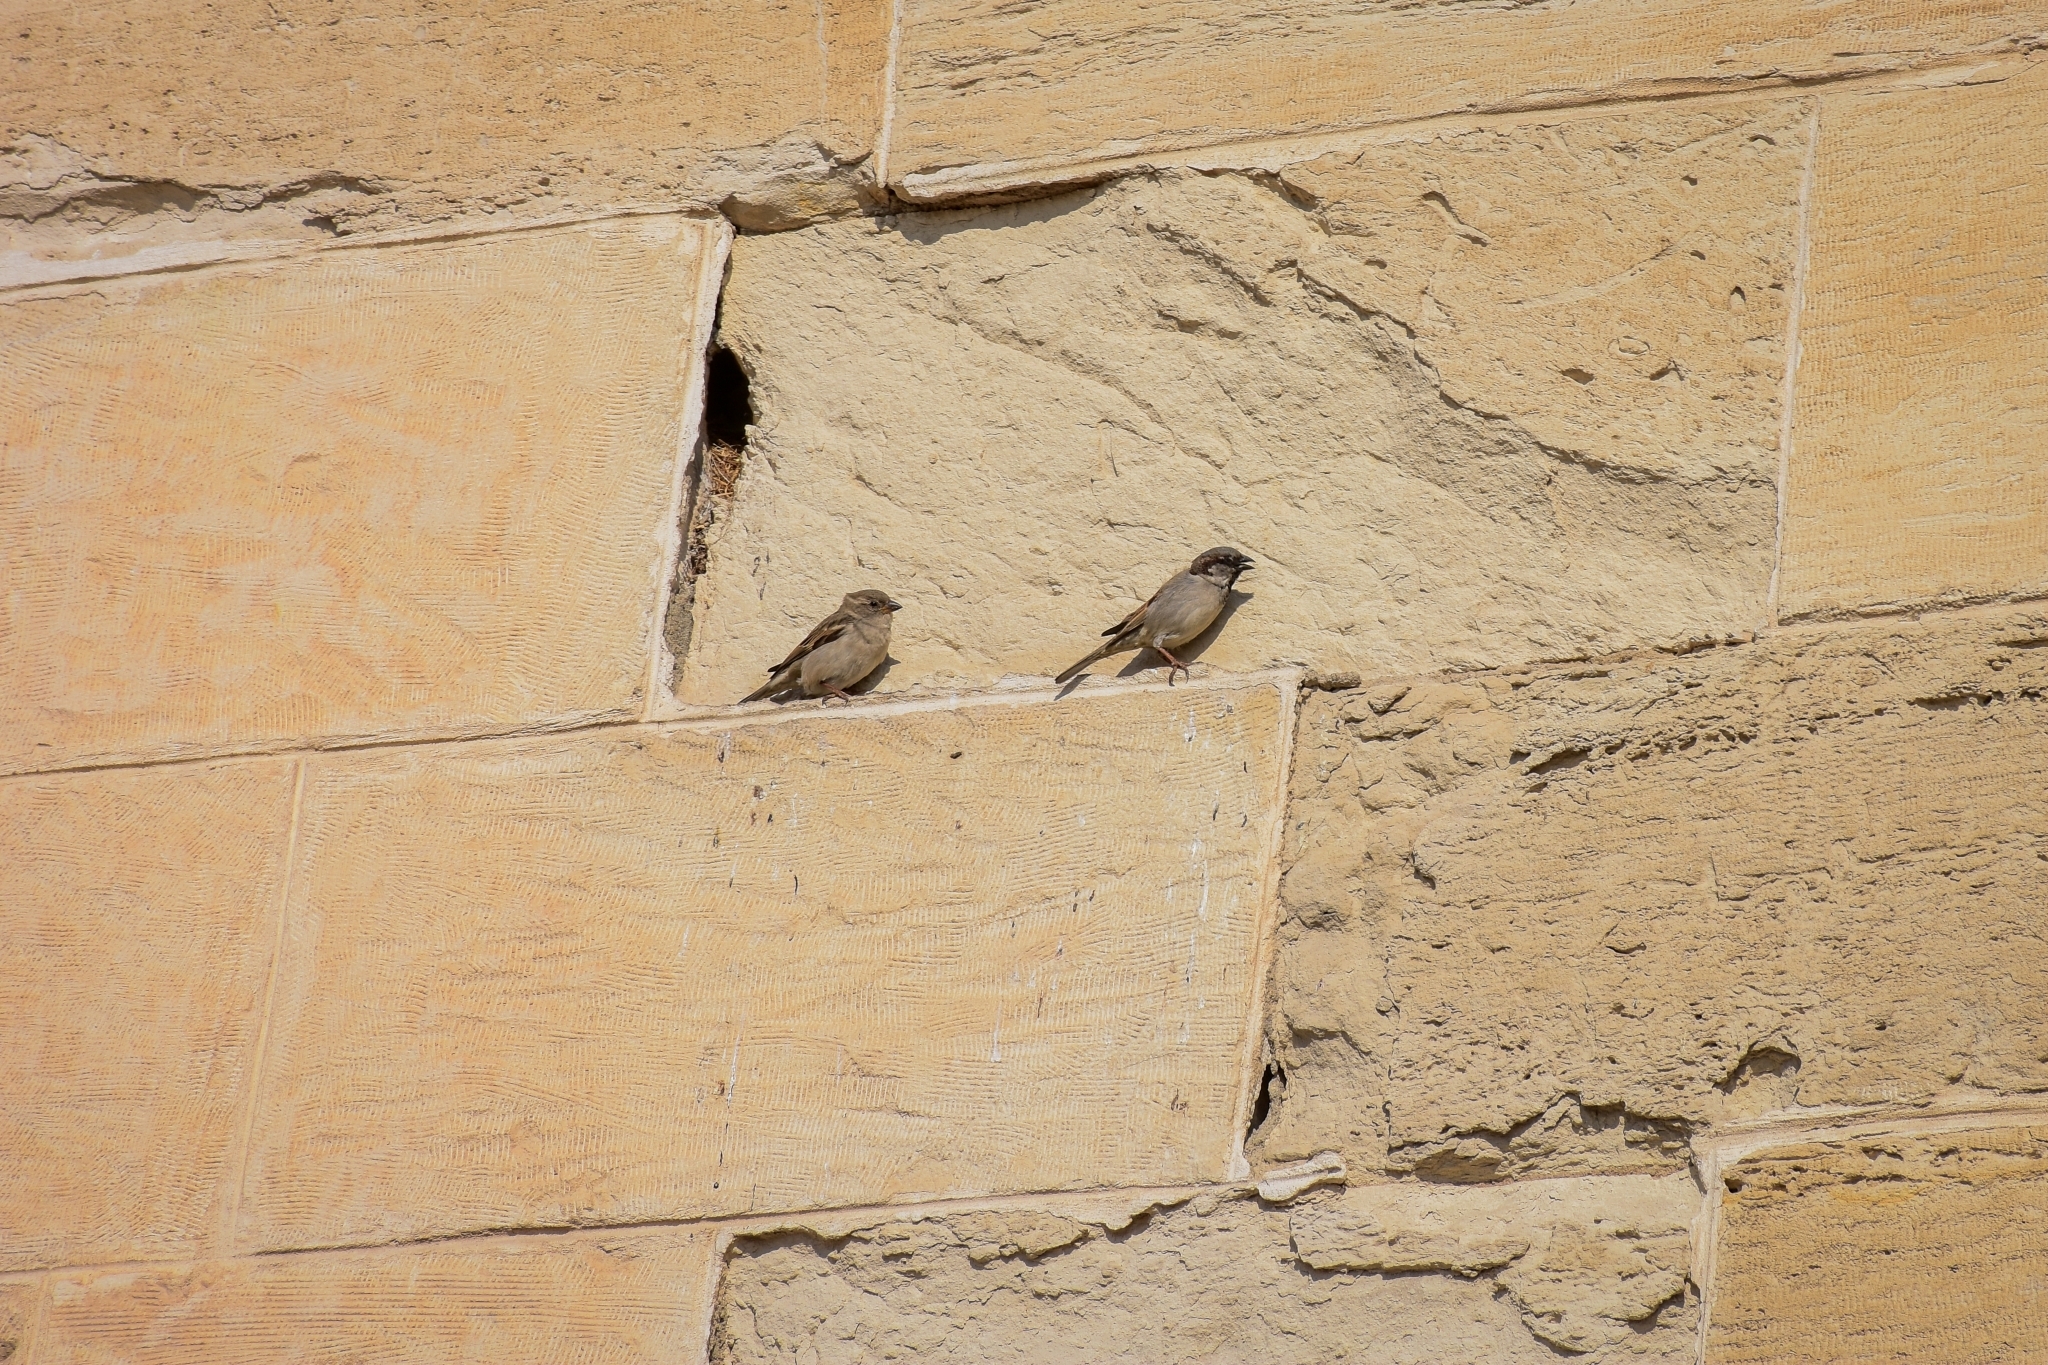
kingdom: Animalia
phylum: Chordata
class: Aves
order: Passeriformes
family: Passeridae
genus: Passer
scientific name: Passer domesticus
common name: House sparrow
